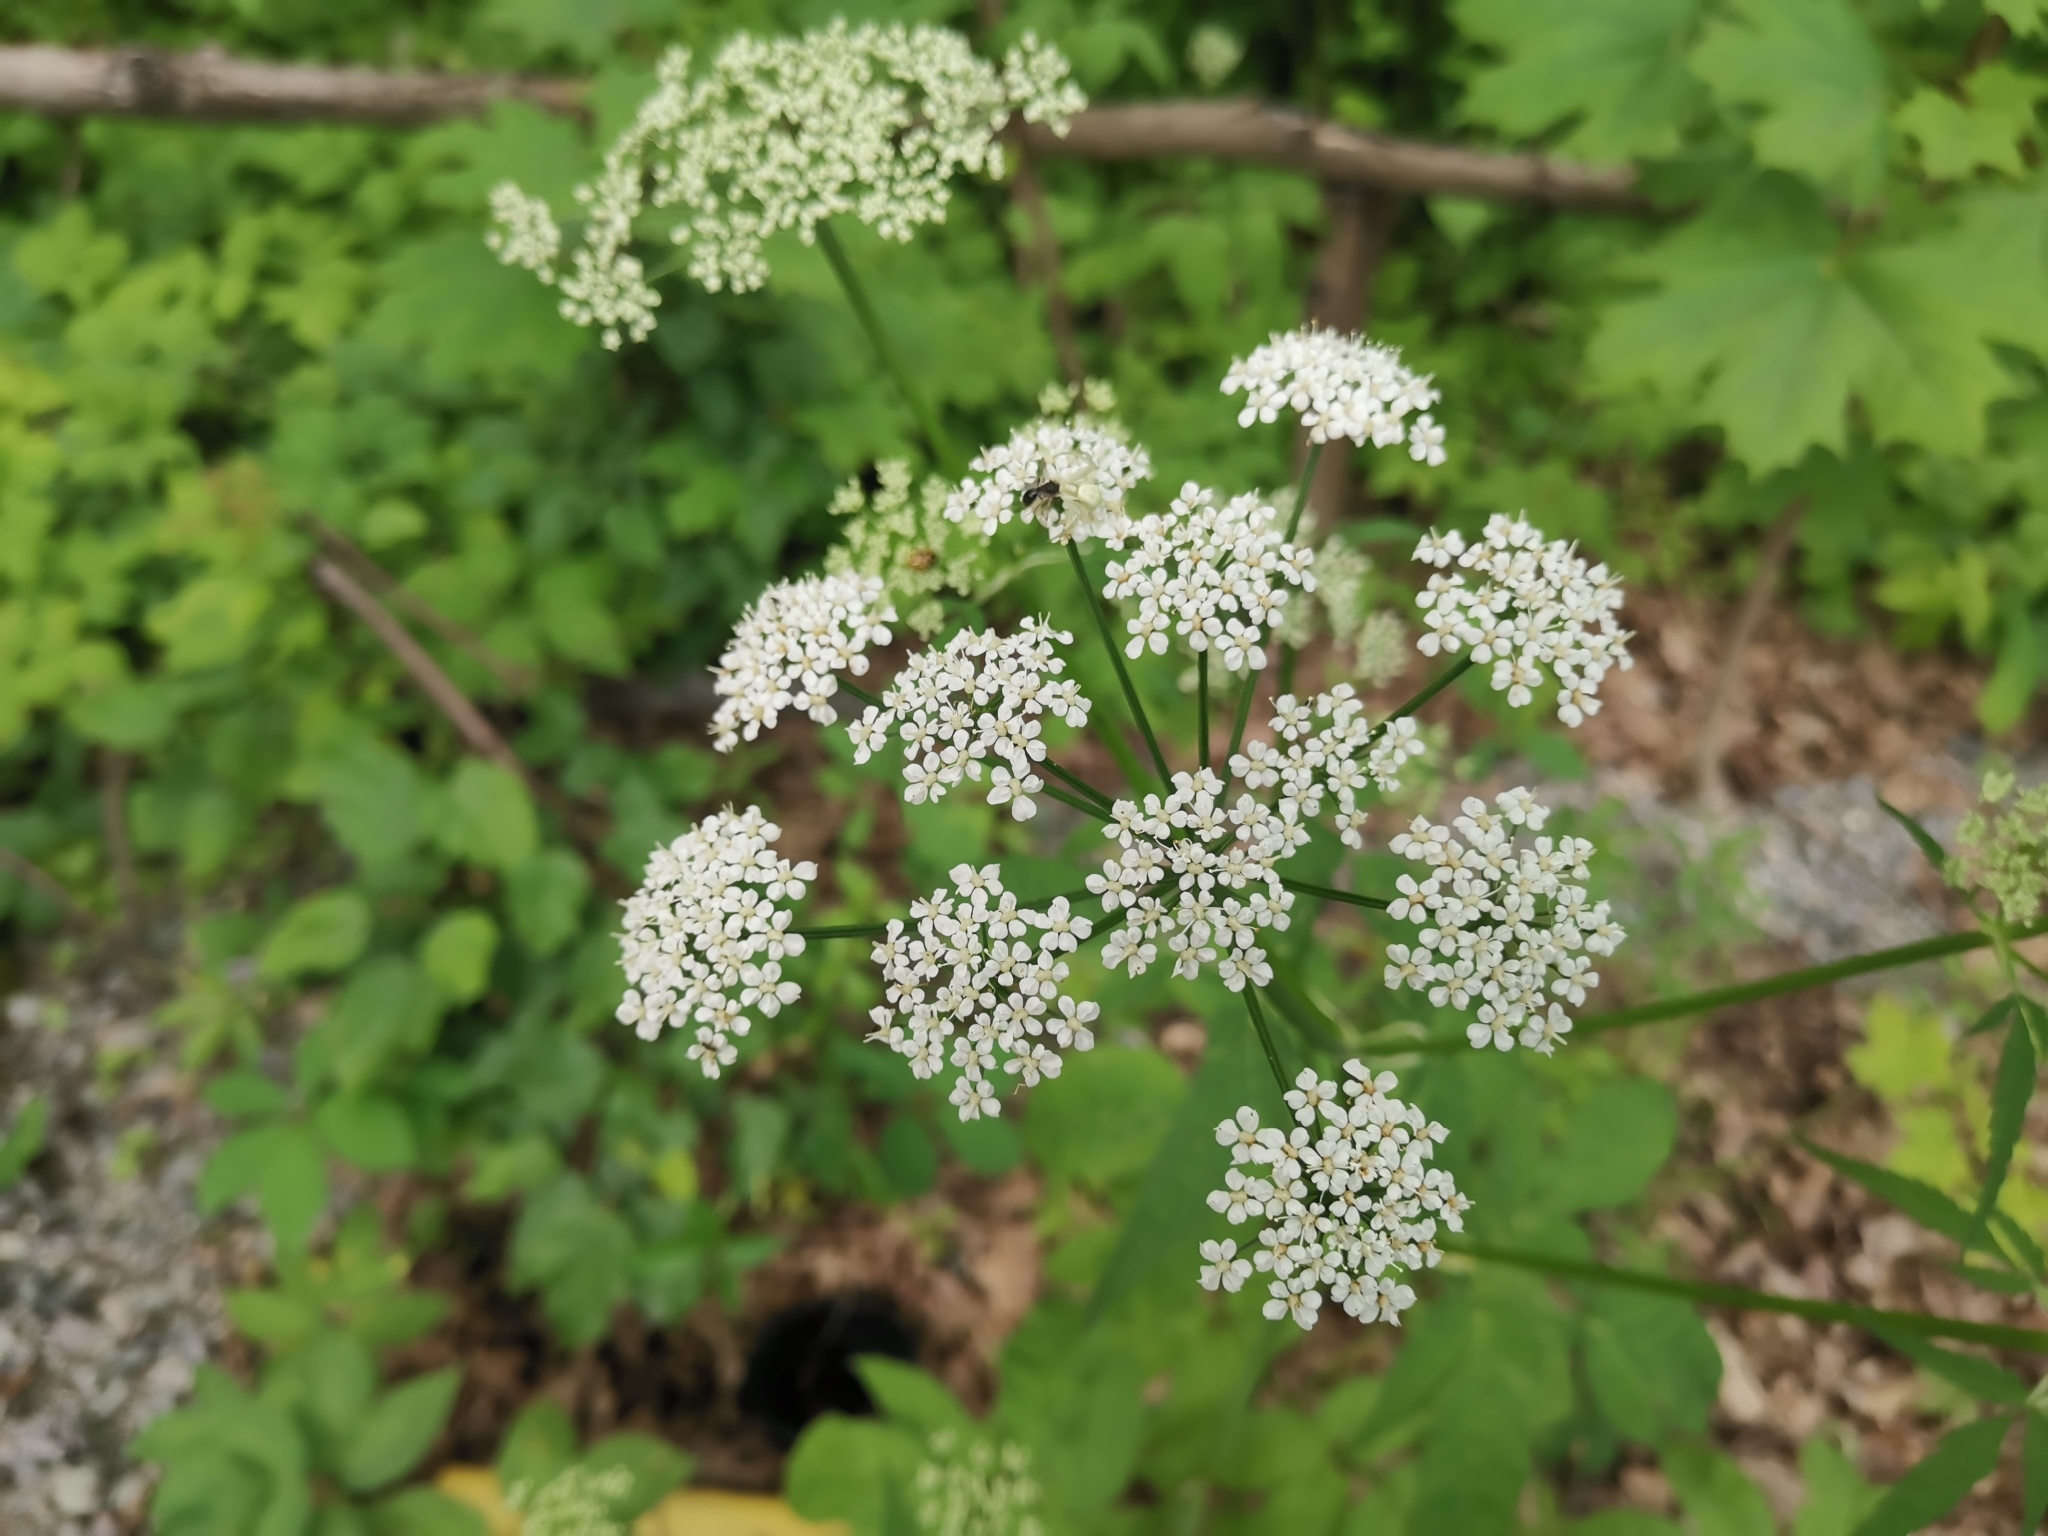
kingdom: Plantae
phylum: Tracheophyta
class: Magnoliopsida
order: Apiales
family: Apiaceae
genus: Aegopodium
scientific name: Aegopodium podagraria
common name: Ground-elder
